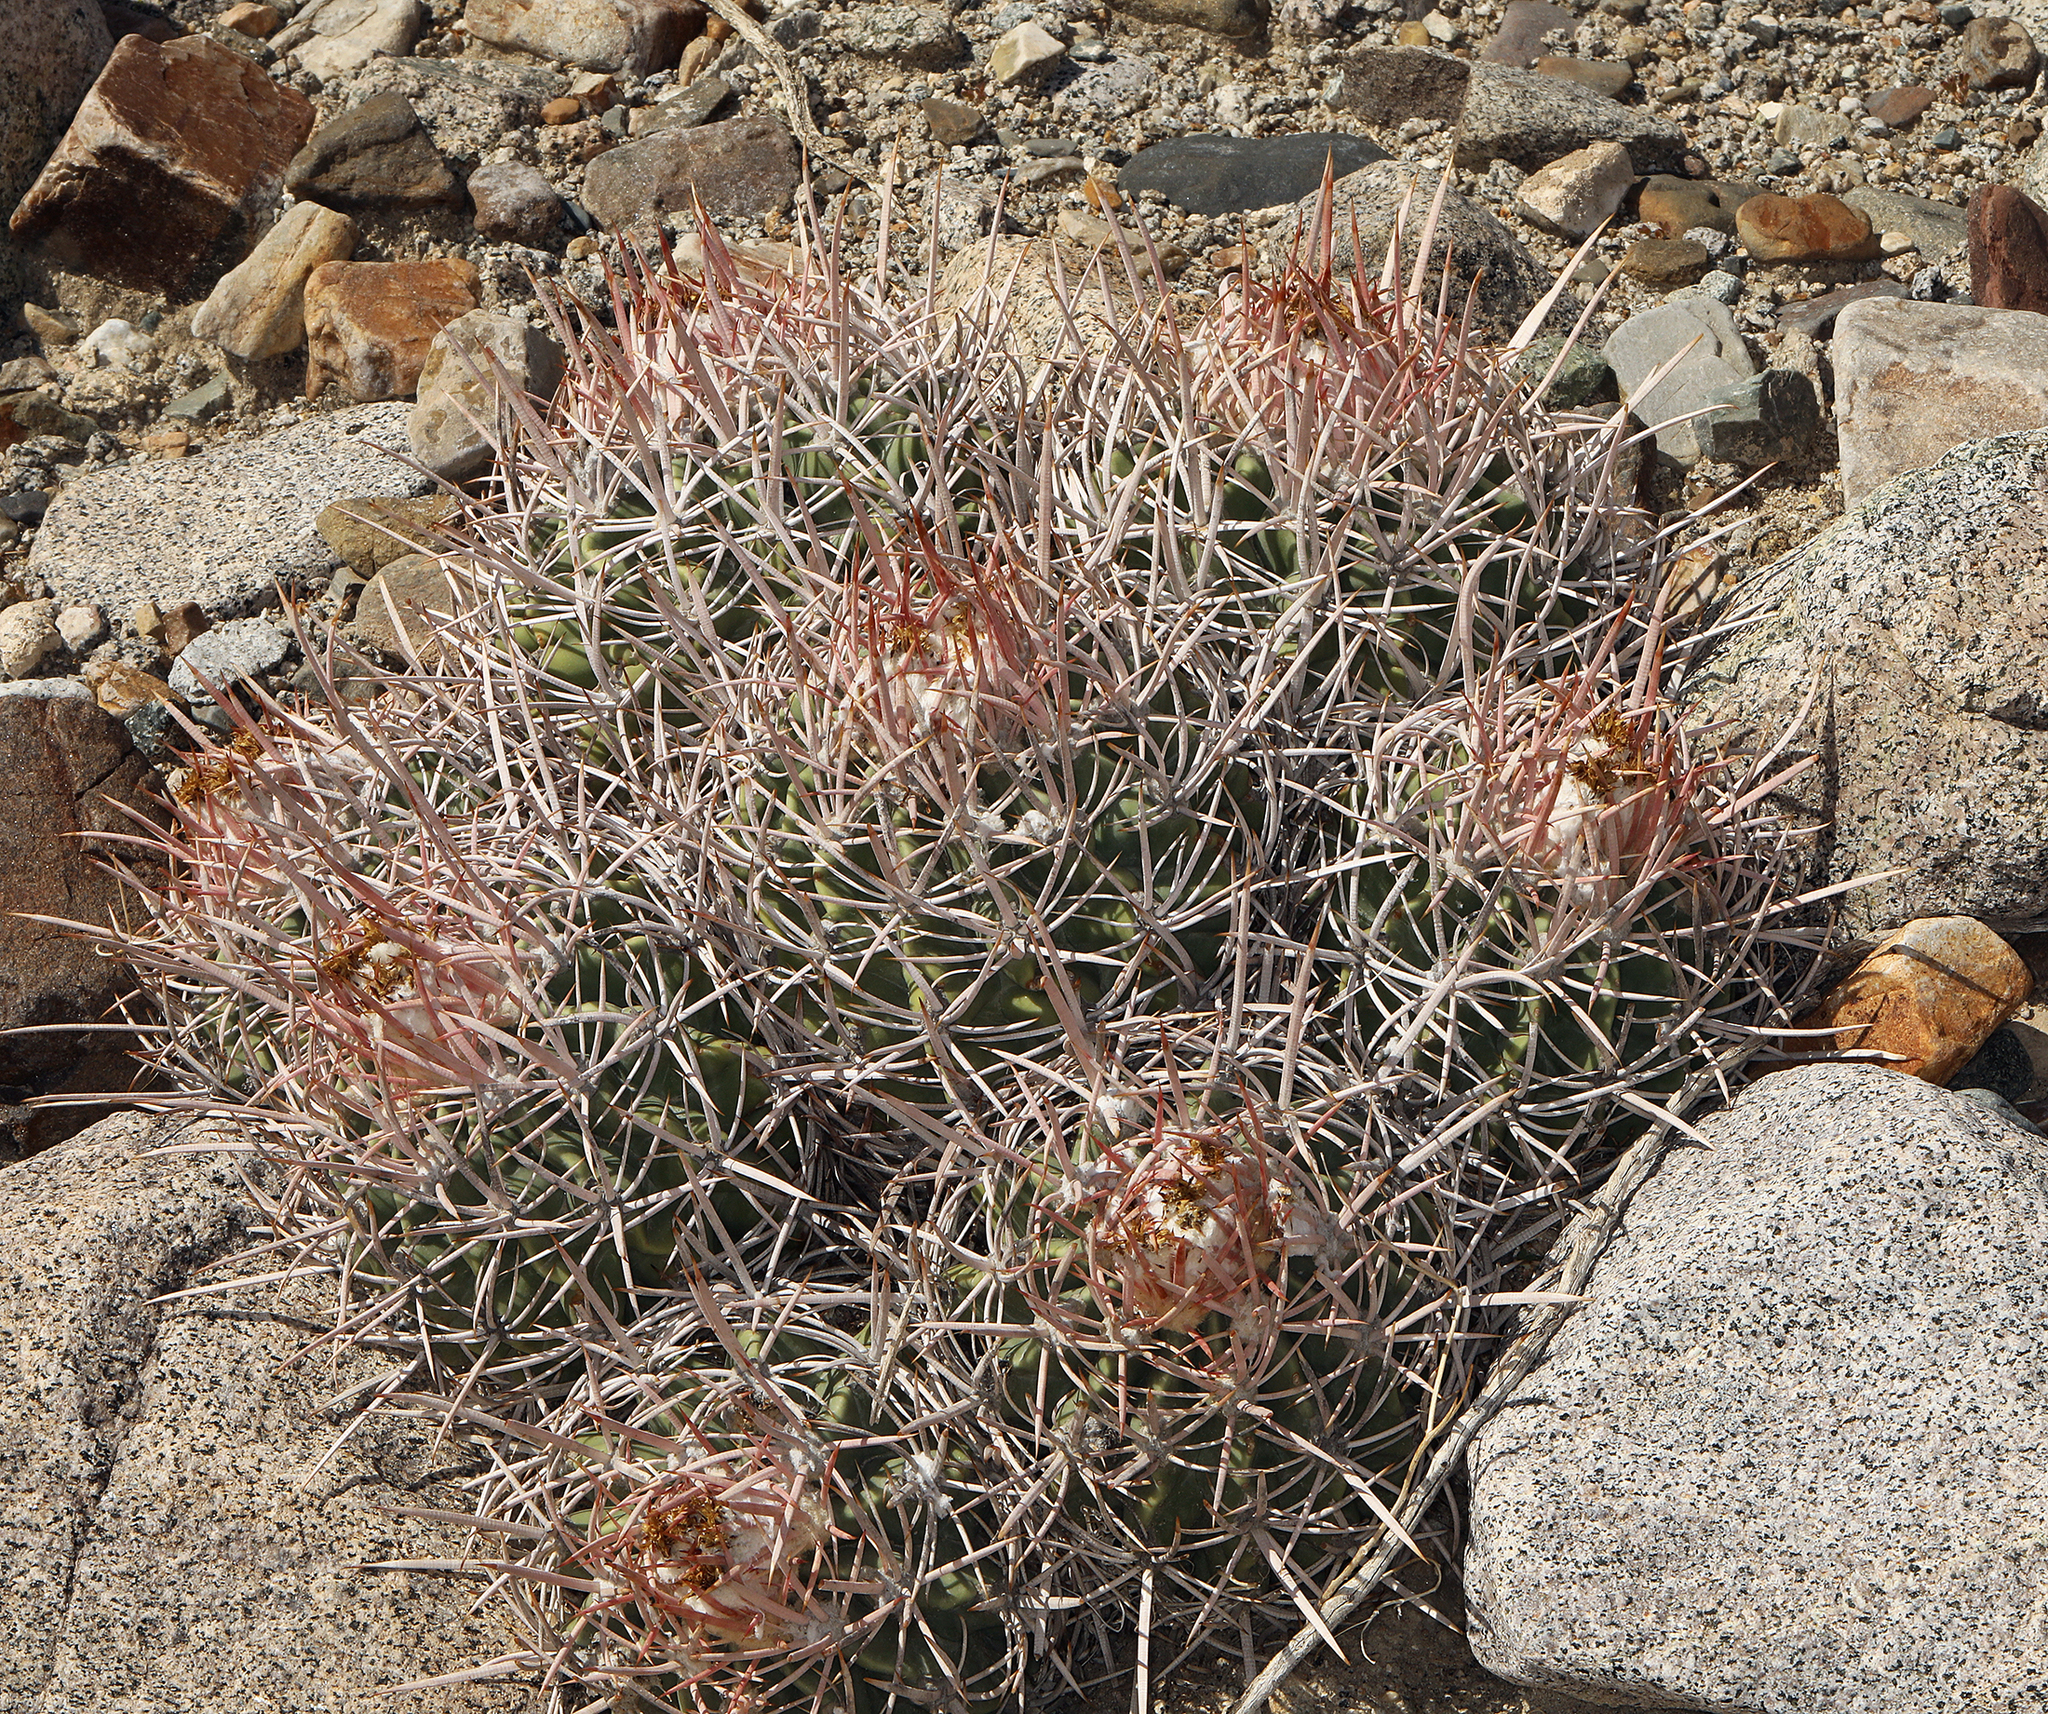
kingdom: Plantae
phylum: Tracheophyta
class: Magnoliopsida
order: Caryophyllales
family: Cactaceae
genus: Echinocactus
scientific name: Echinocactus polycephalus
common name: Cottontop cactus
